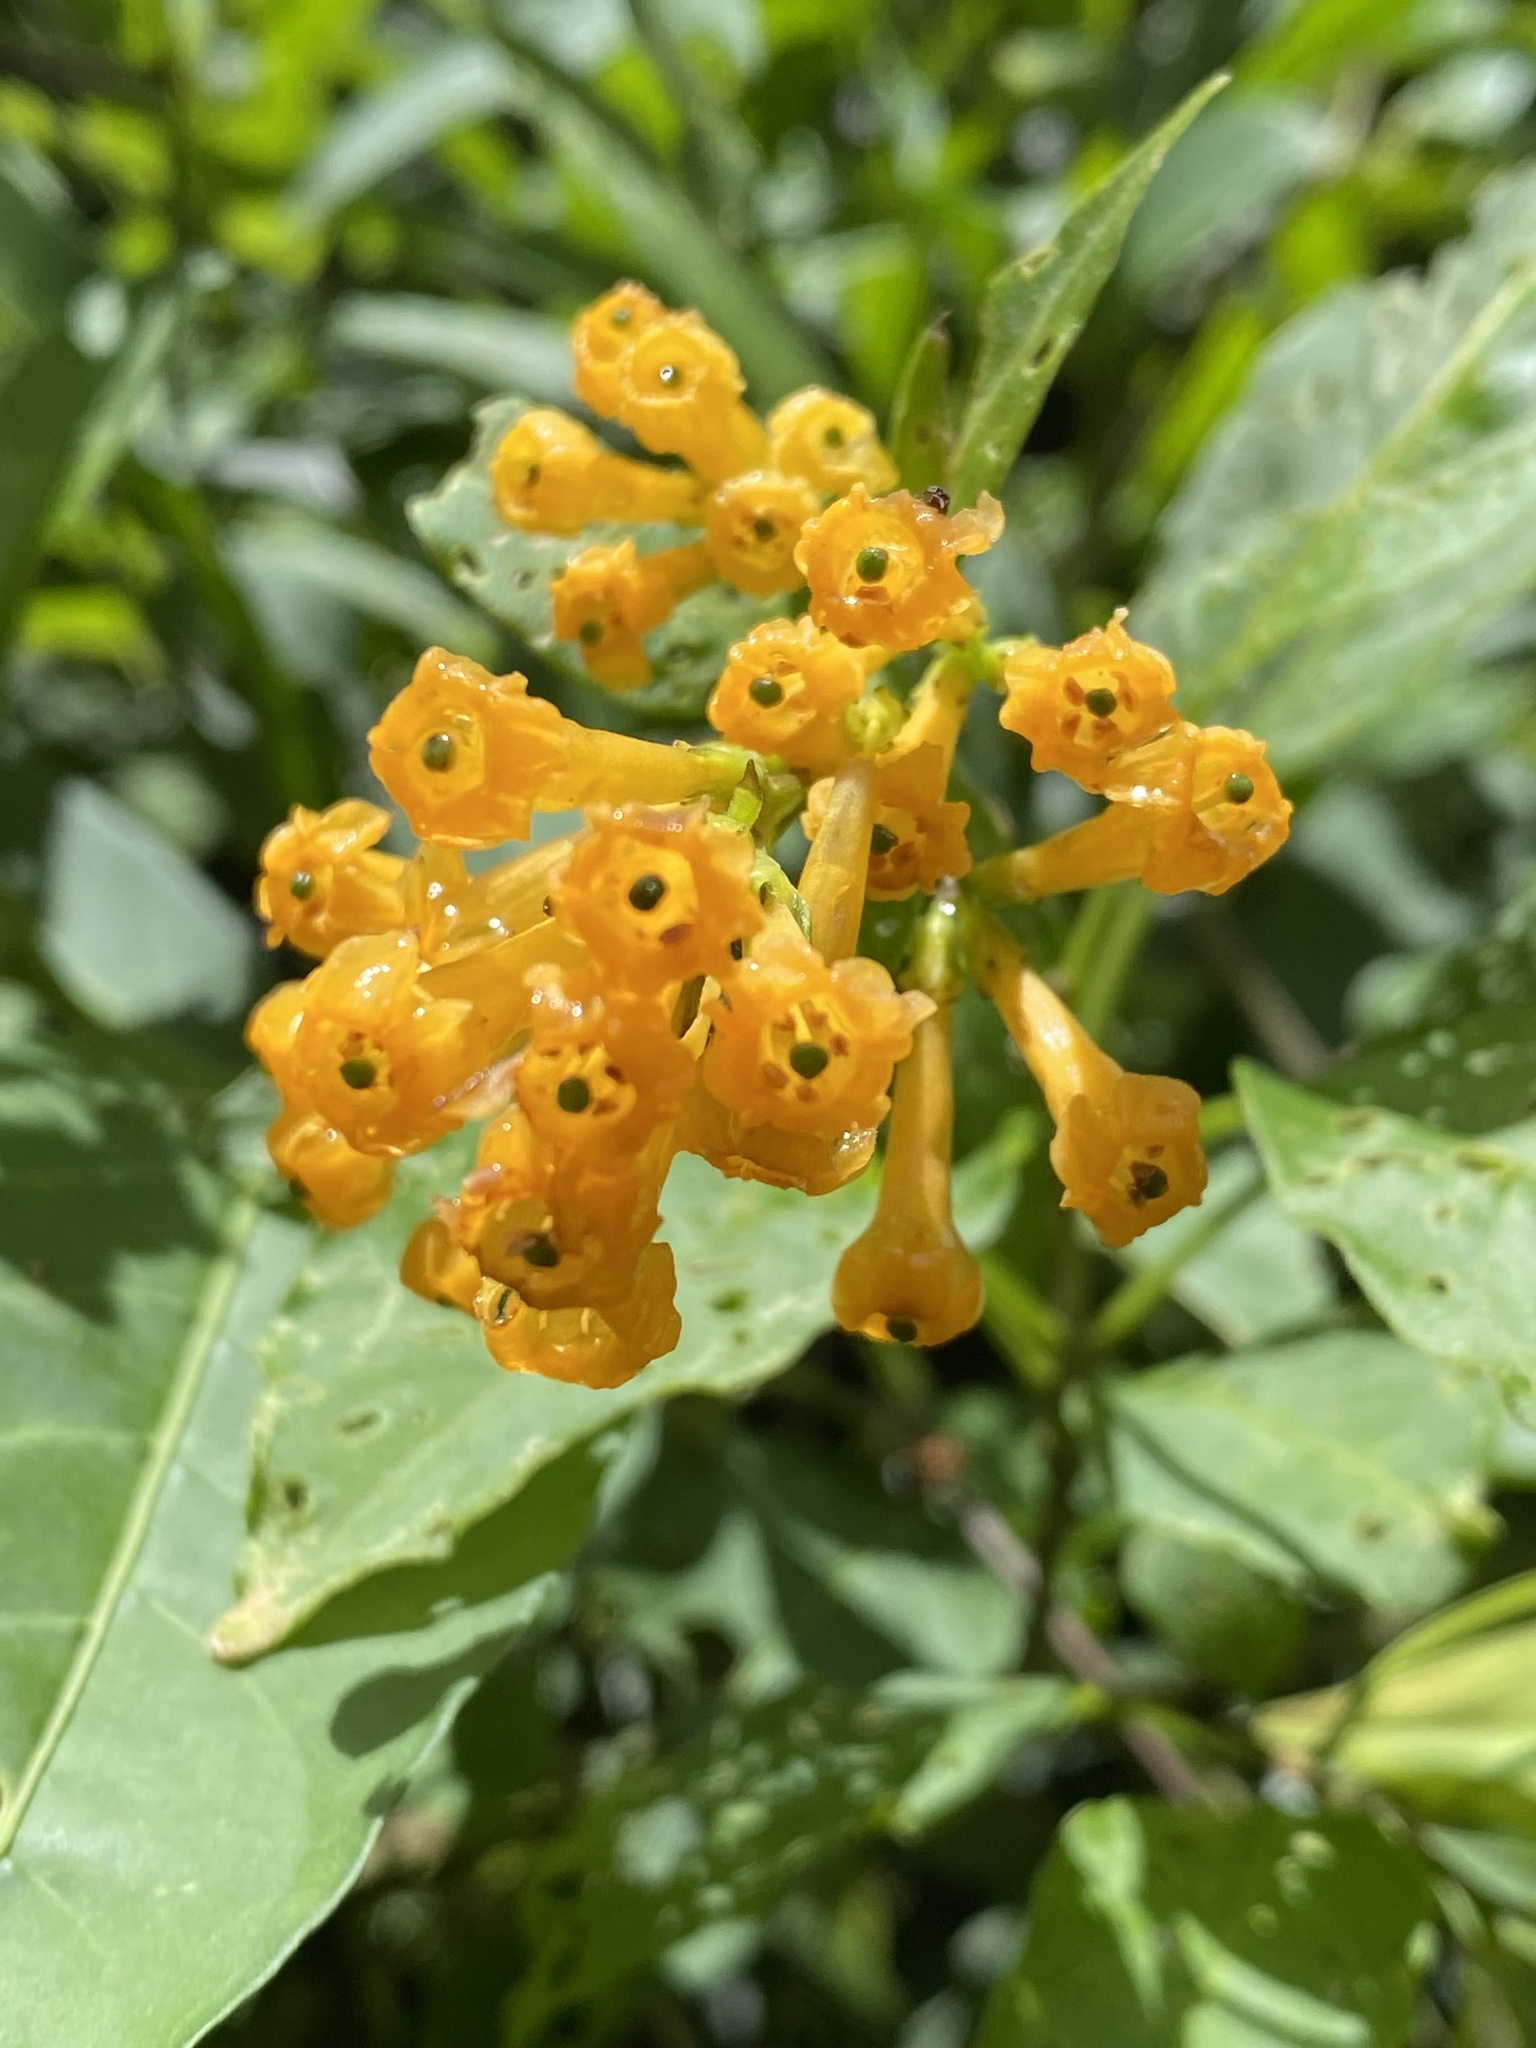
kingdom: Plantae
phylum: Tracheophyta
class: Magnoliopsida
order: Solanales
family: Solanaceae
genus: Cestrum
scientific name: Cestrum aurantiacum
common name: Orange cestrum
